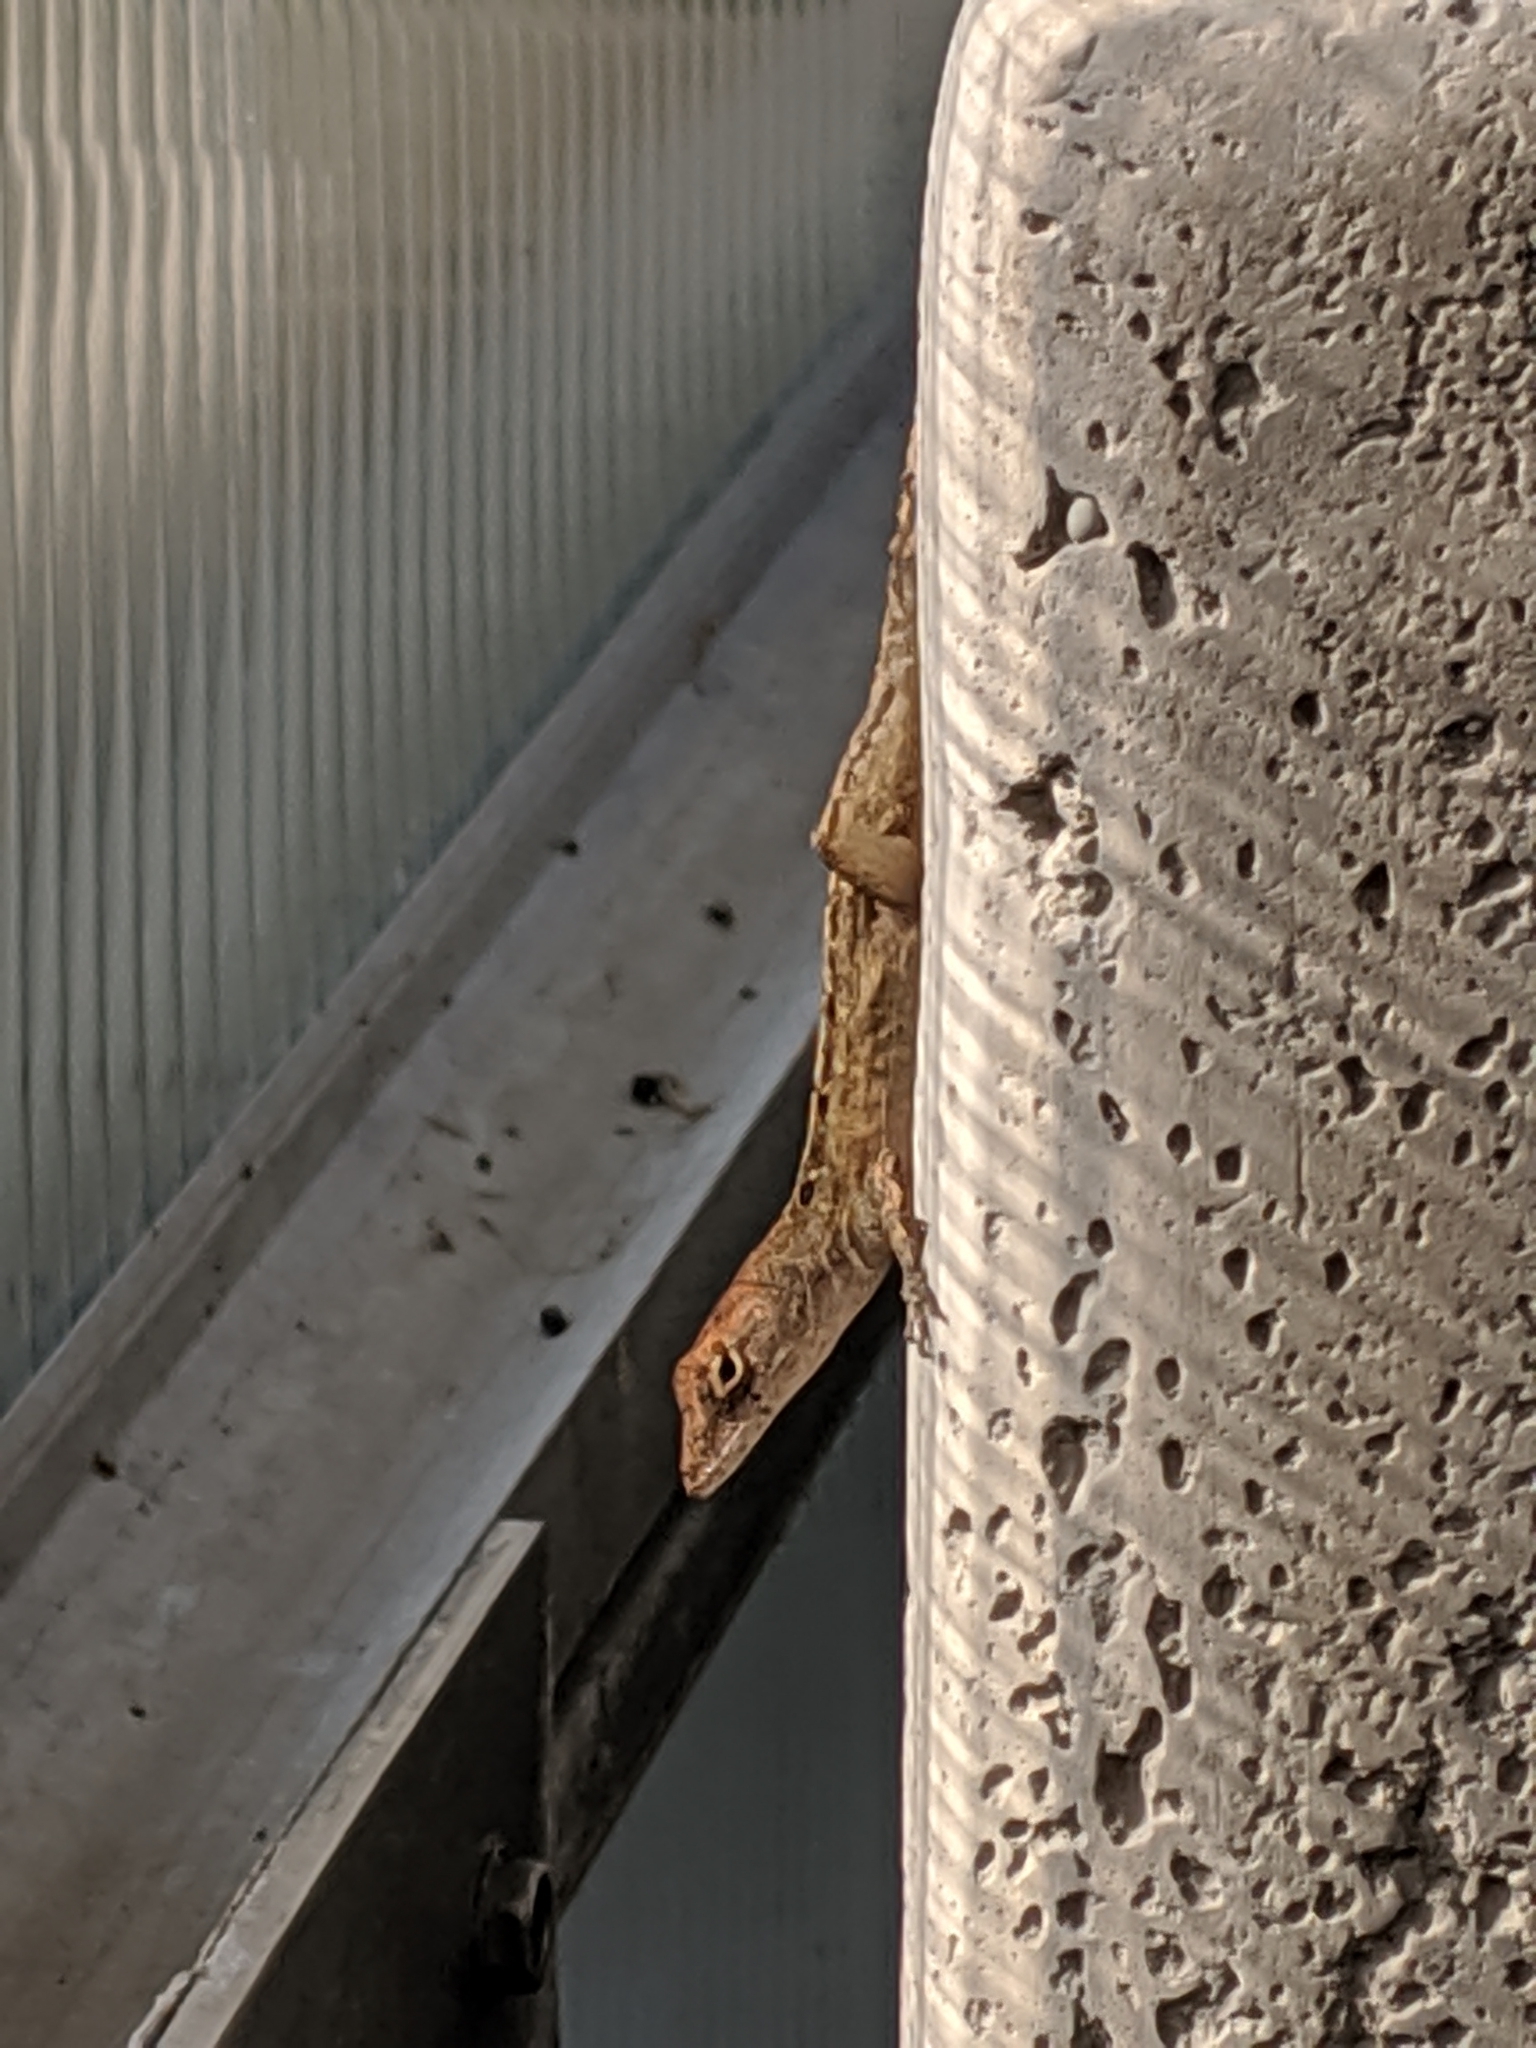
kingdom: Animalia
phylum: Chordata
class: Squamata
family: Dactyloidae
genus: Anolis
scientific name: Anolis sagrei
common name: Brown anole
